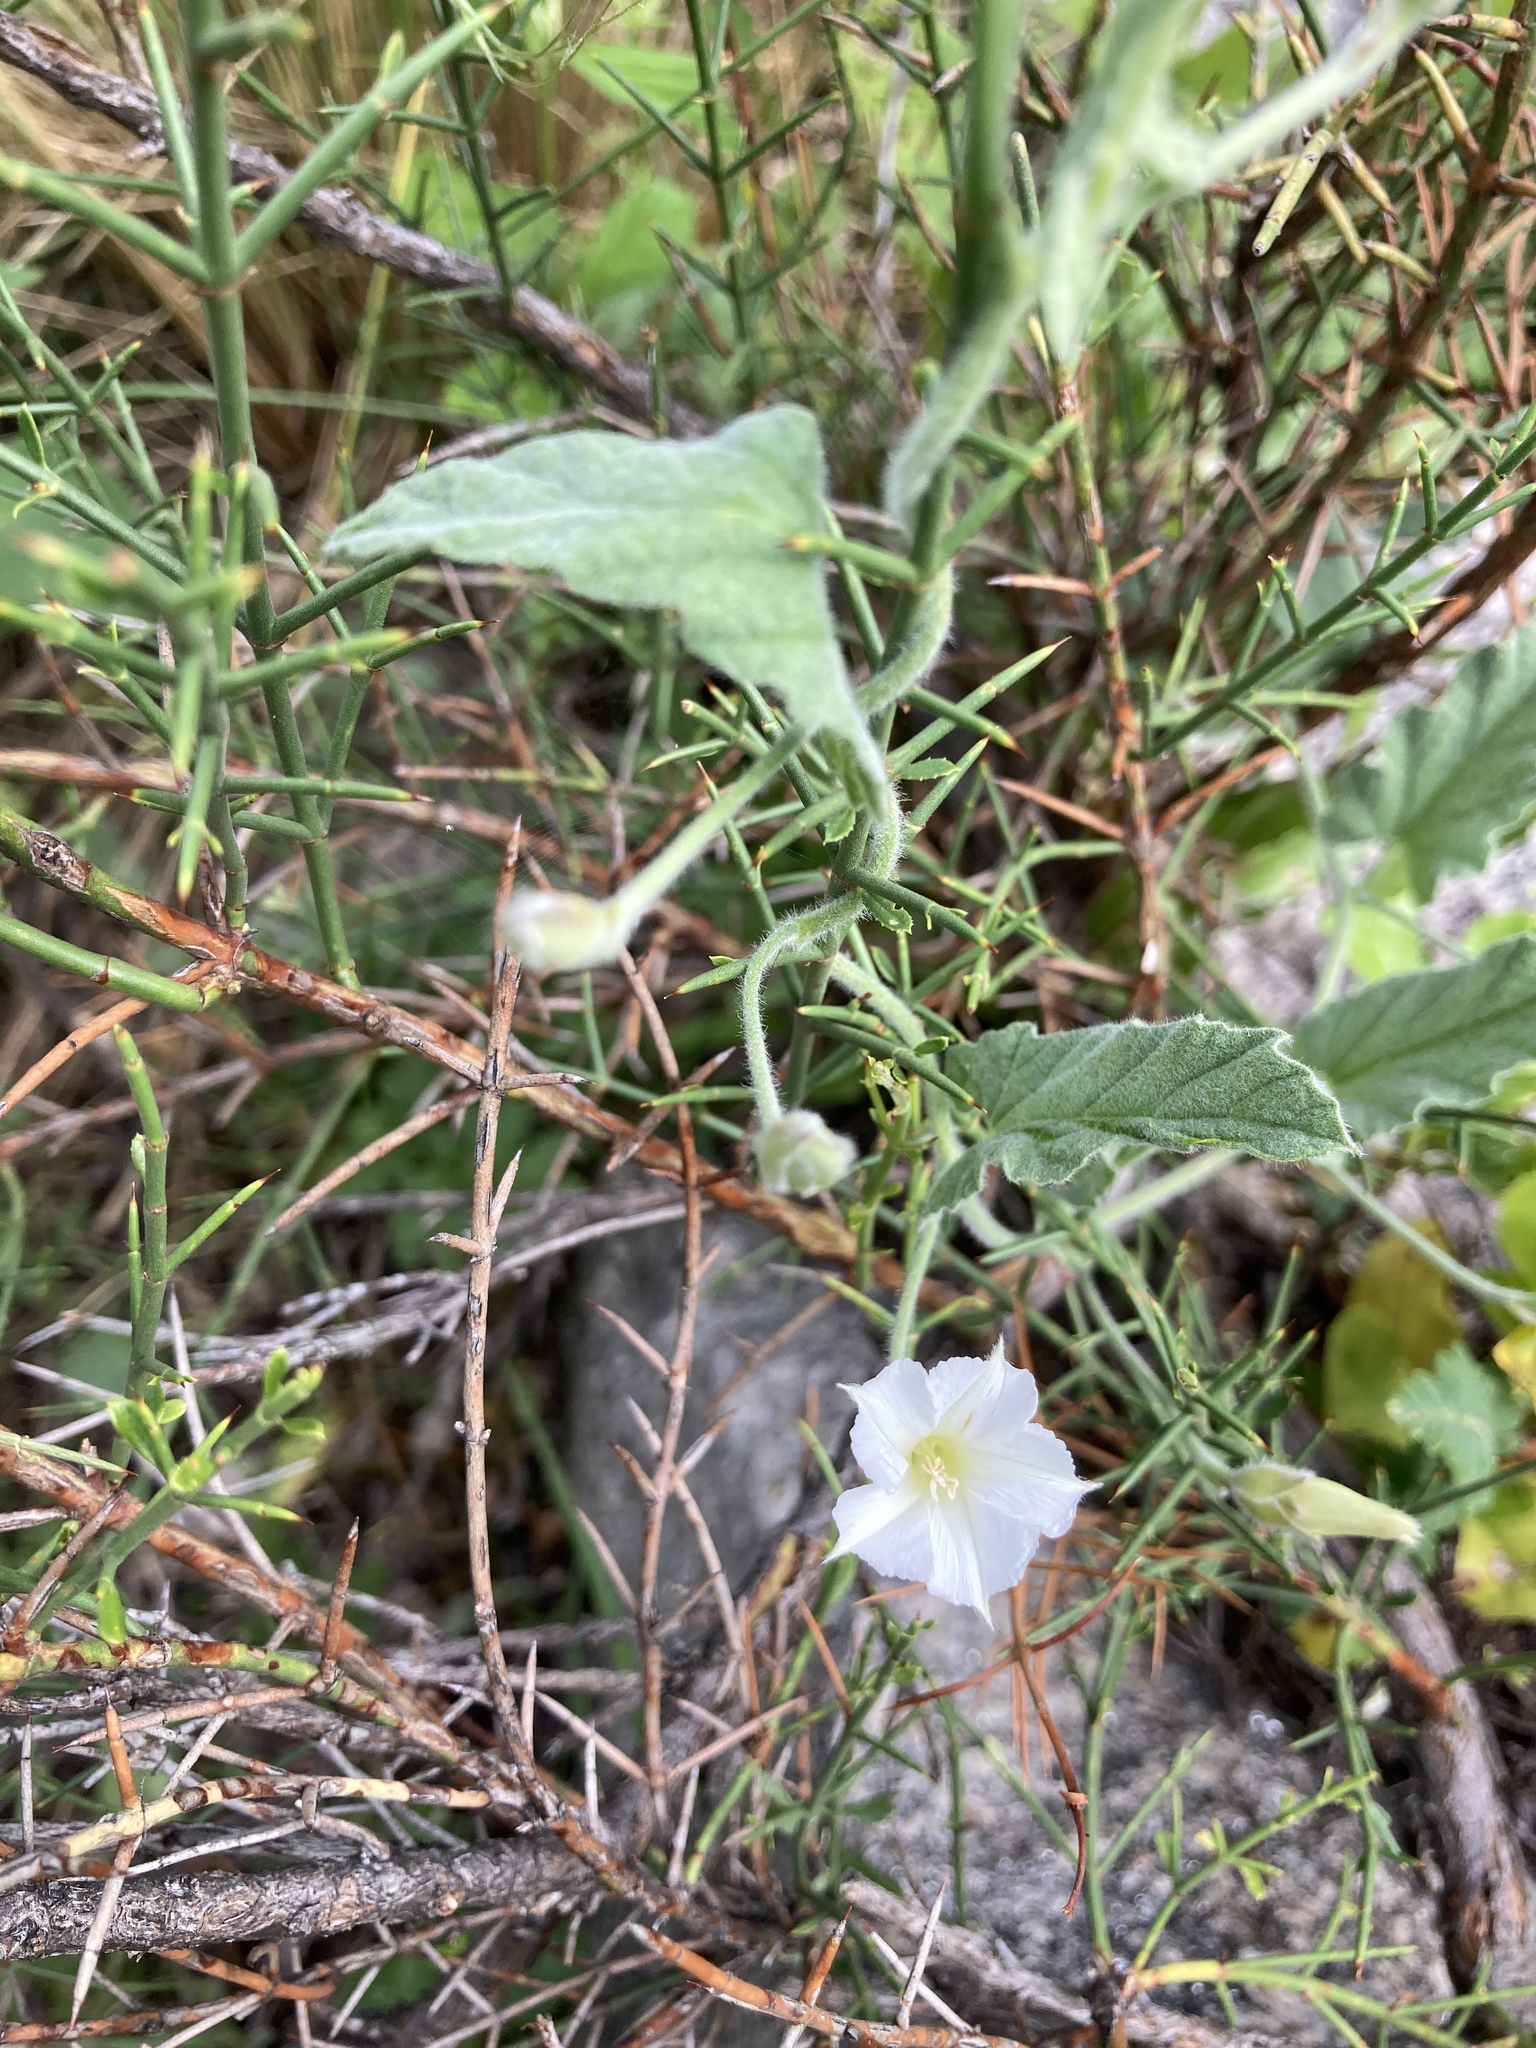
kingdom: Plantae
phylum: Tracheophyta
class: Magnoliopsida
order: Solanales
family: Convolvulaceae
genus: Convolvulus
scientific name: Convolvulus hermanniae
